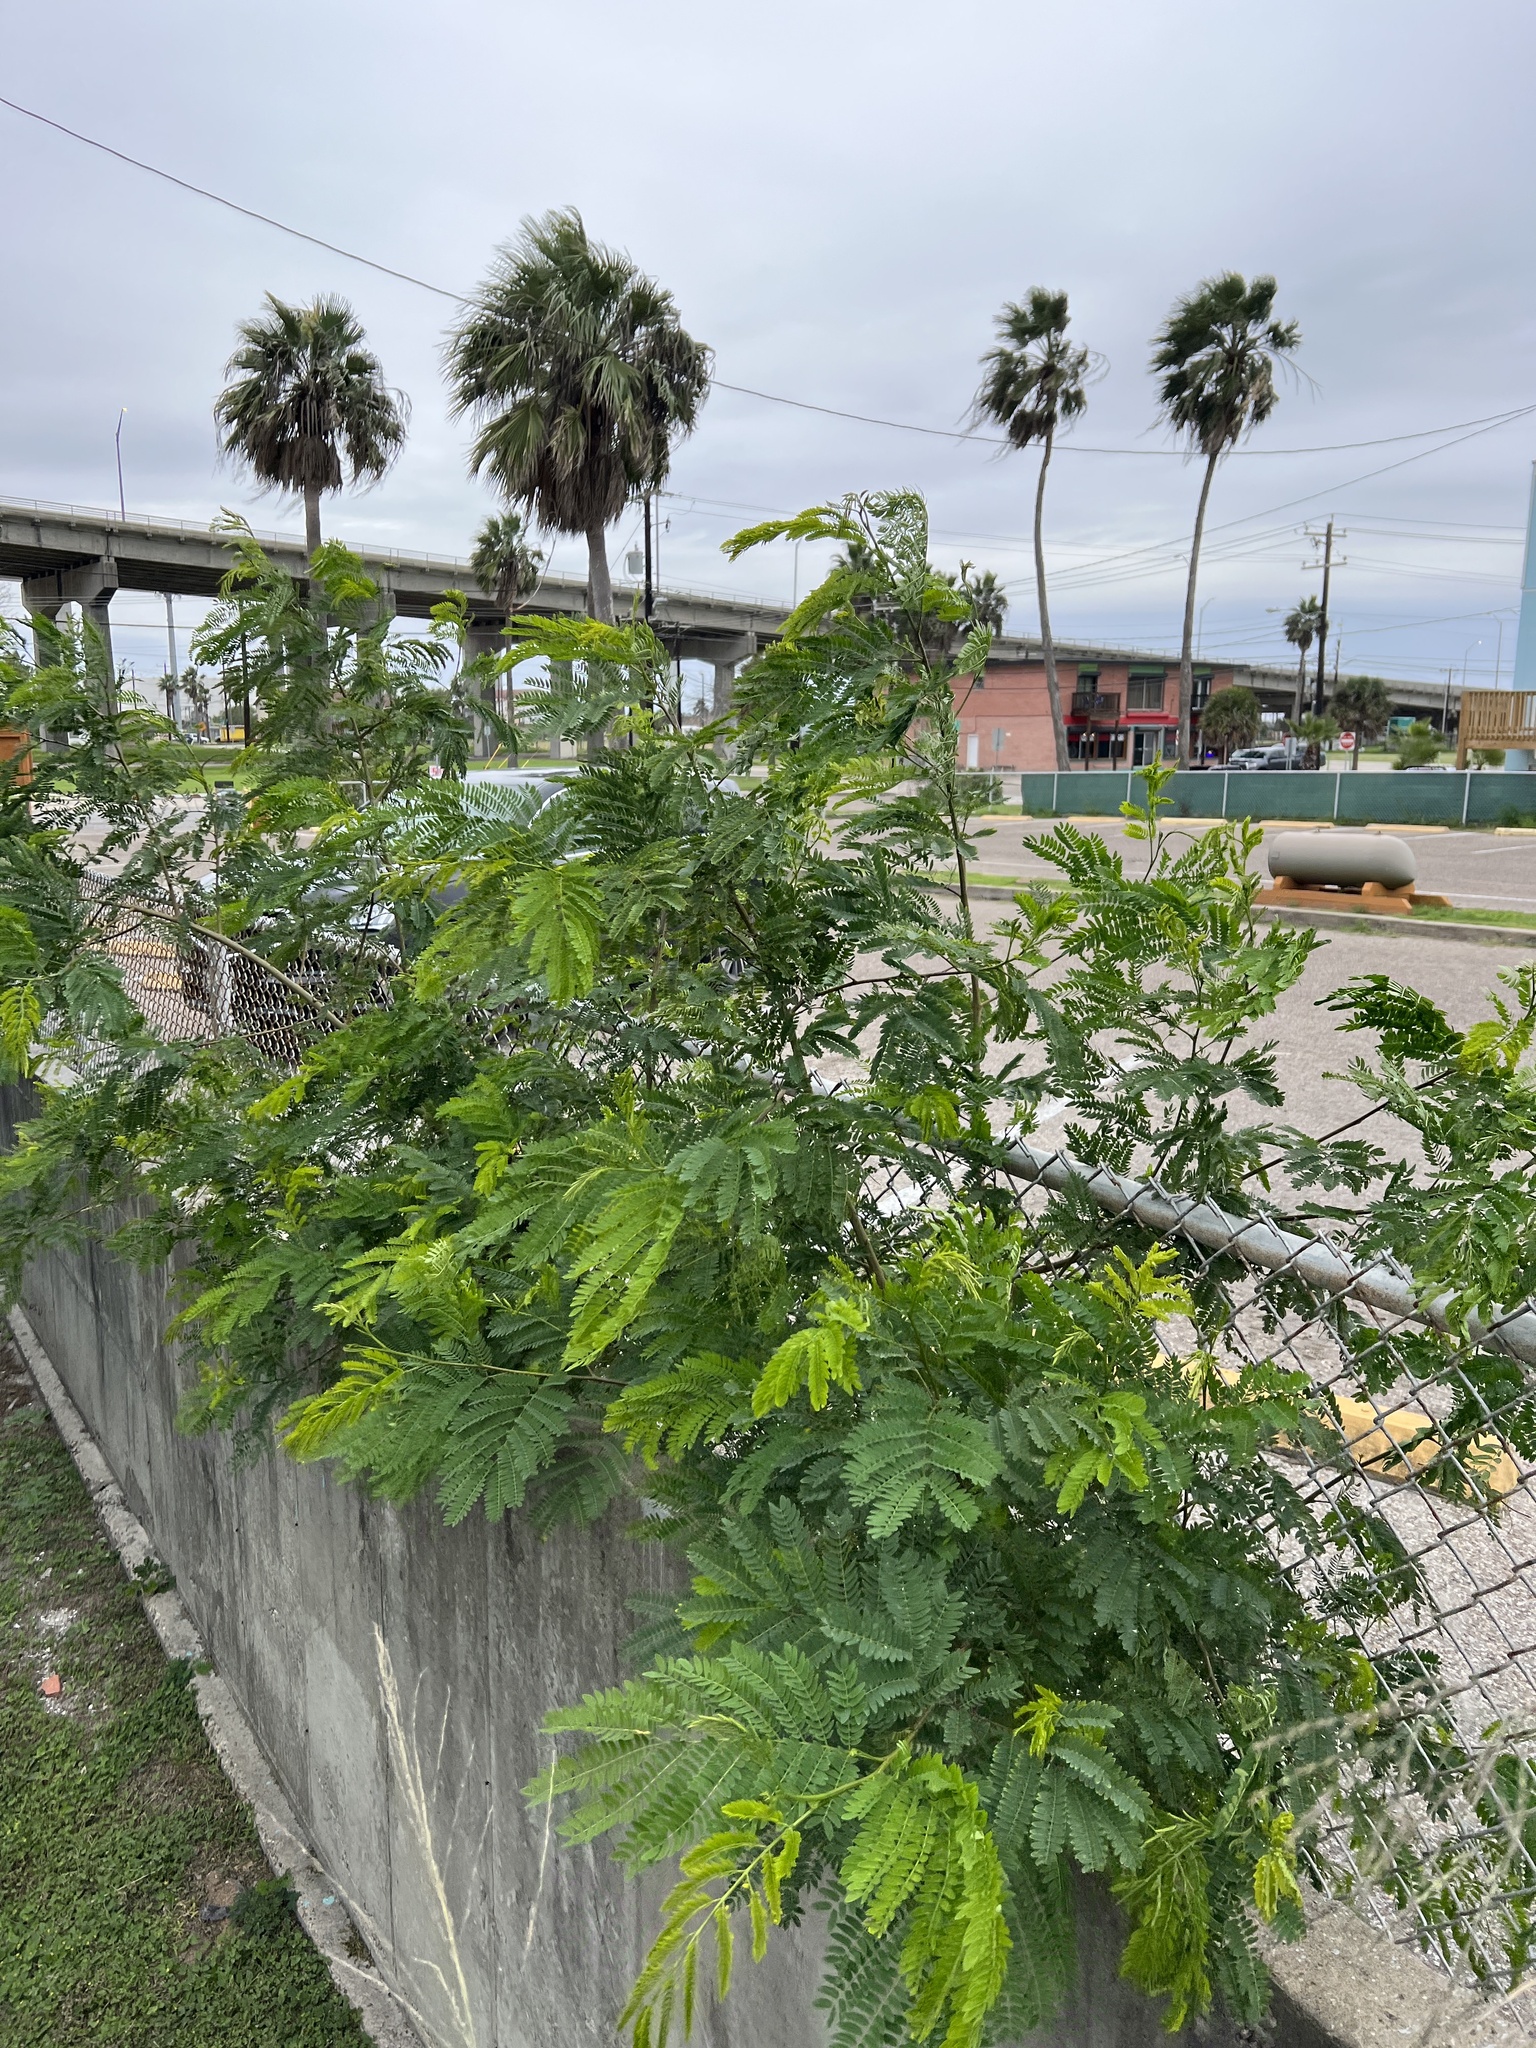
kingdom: Plantae
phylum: Tracheophyta
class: Magnoliopsida
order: Fabales
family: Fabaceae
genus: Leucaena
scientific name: Leucaena leucocephala
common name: White leadtree
